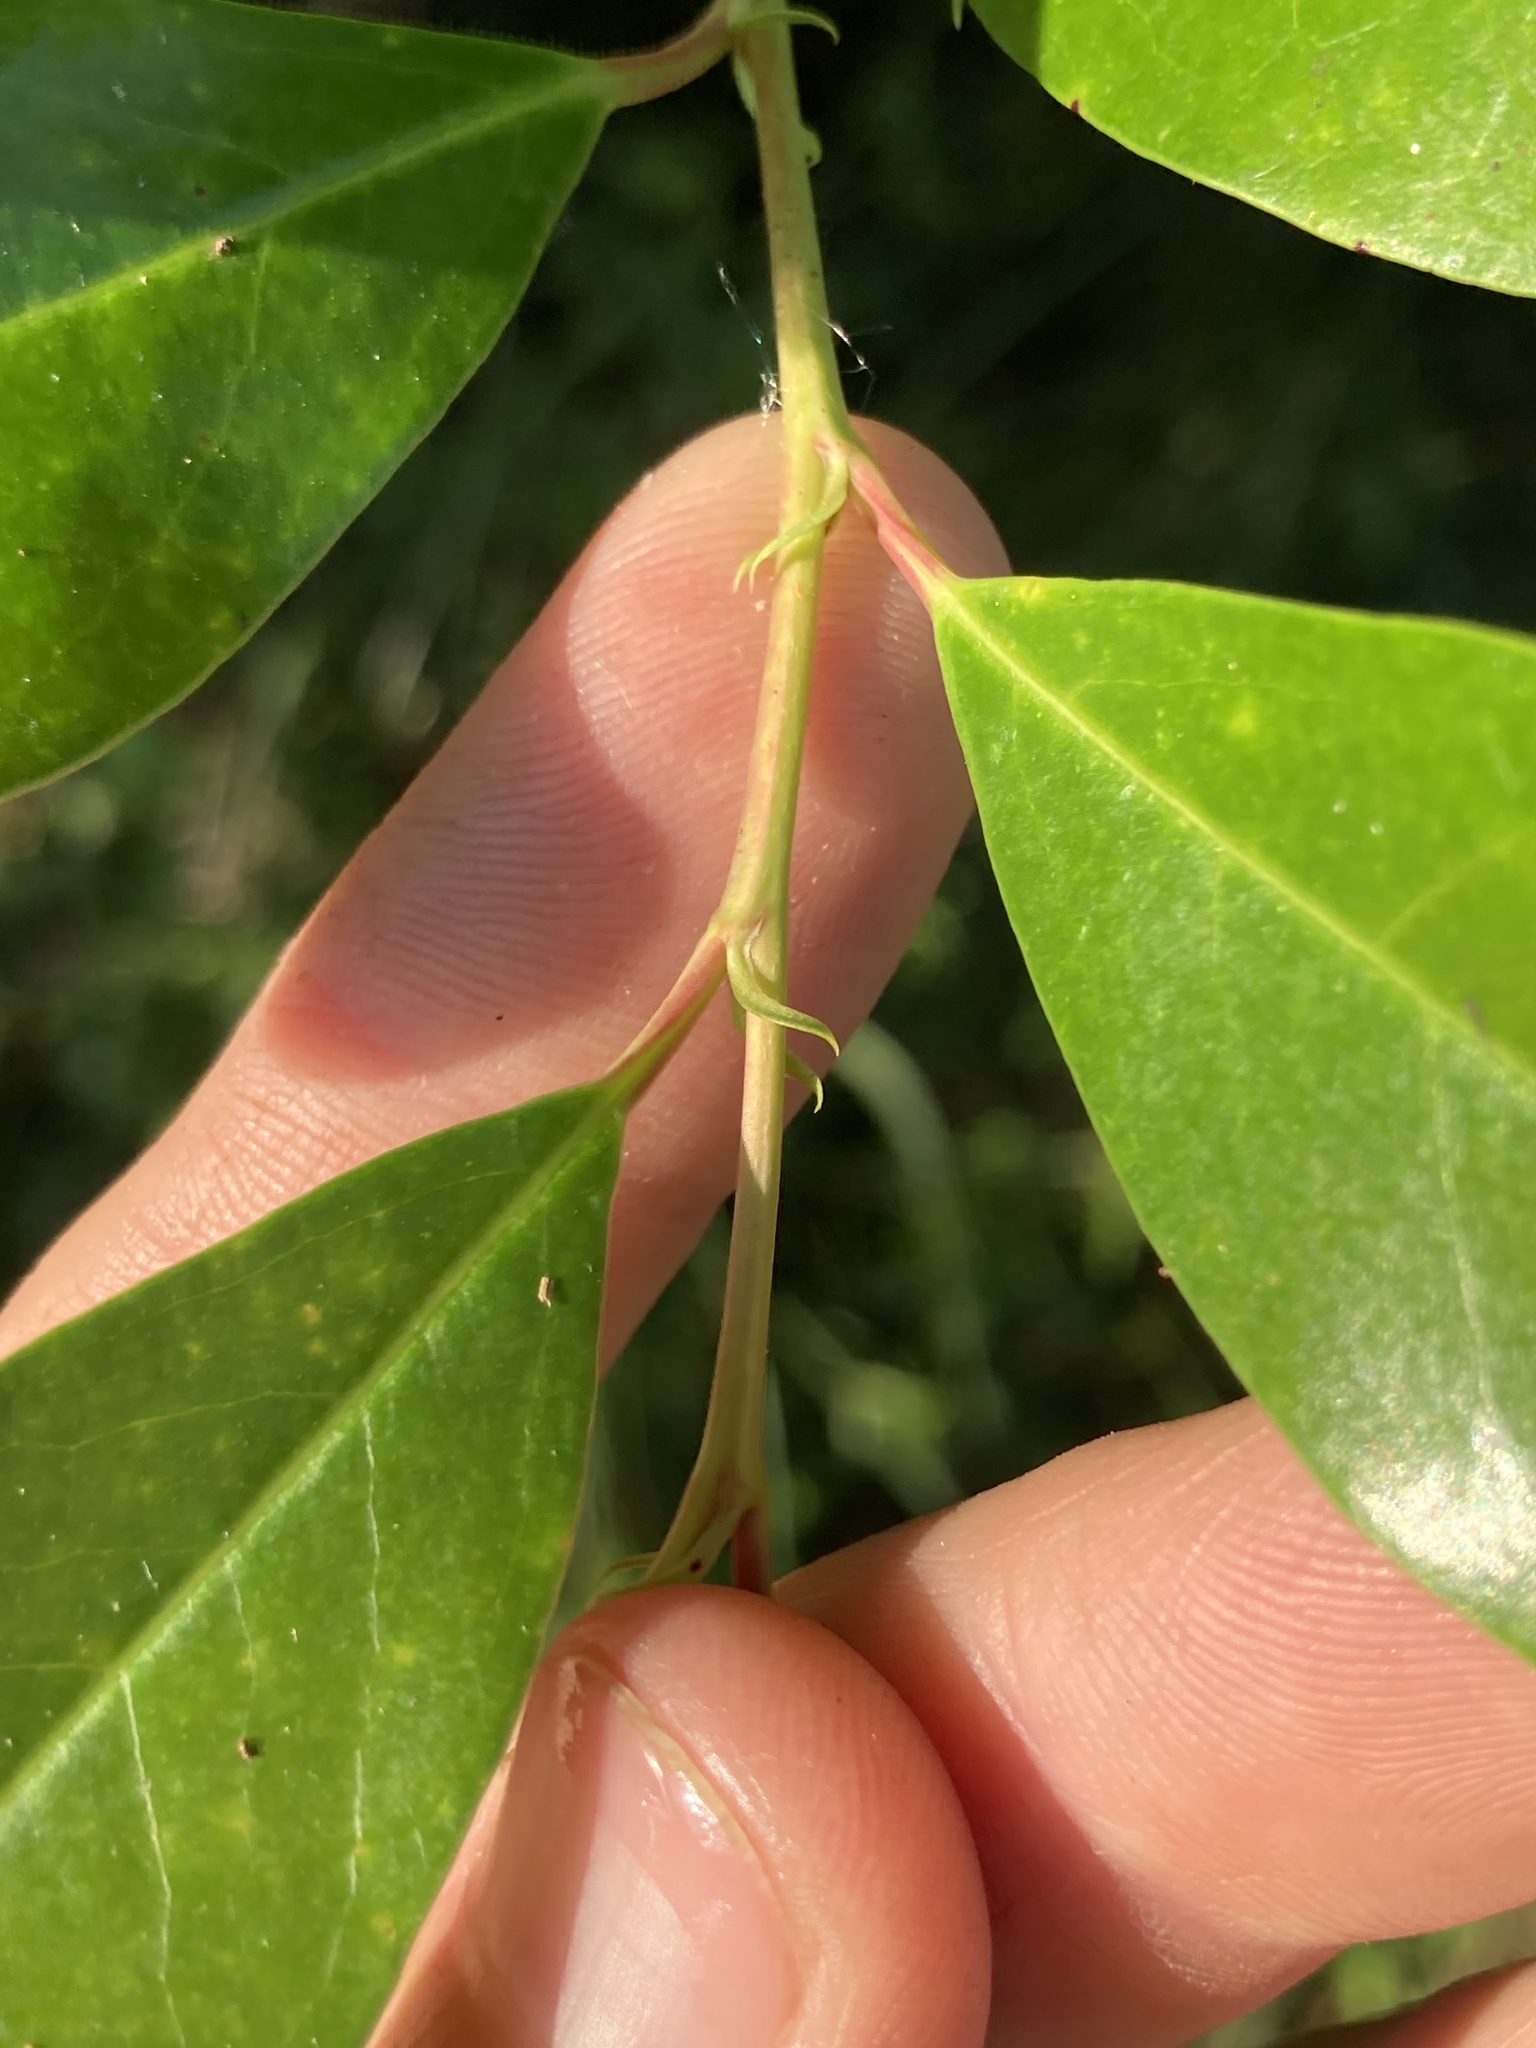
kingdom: Plantae
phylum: Tracheophyta
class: Magnoliopsida
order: Rosales
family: Rosaceae
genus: Prunus
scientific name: Prunus caroliniana
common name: Carolina laurel cherry
